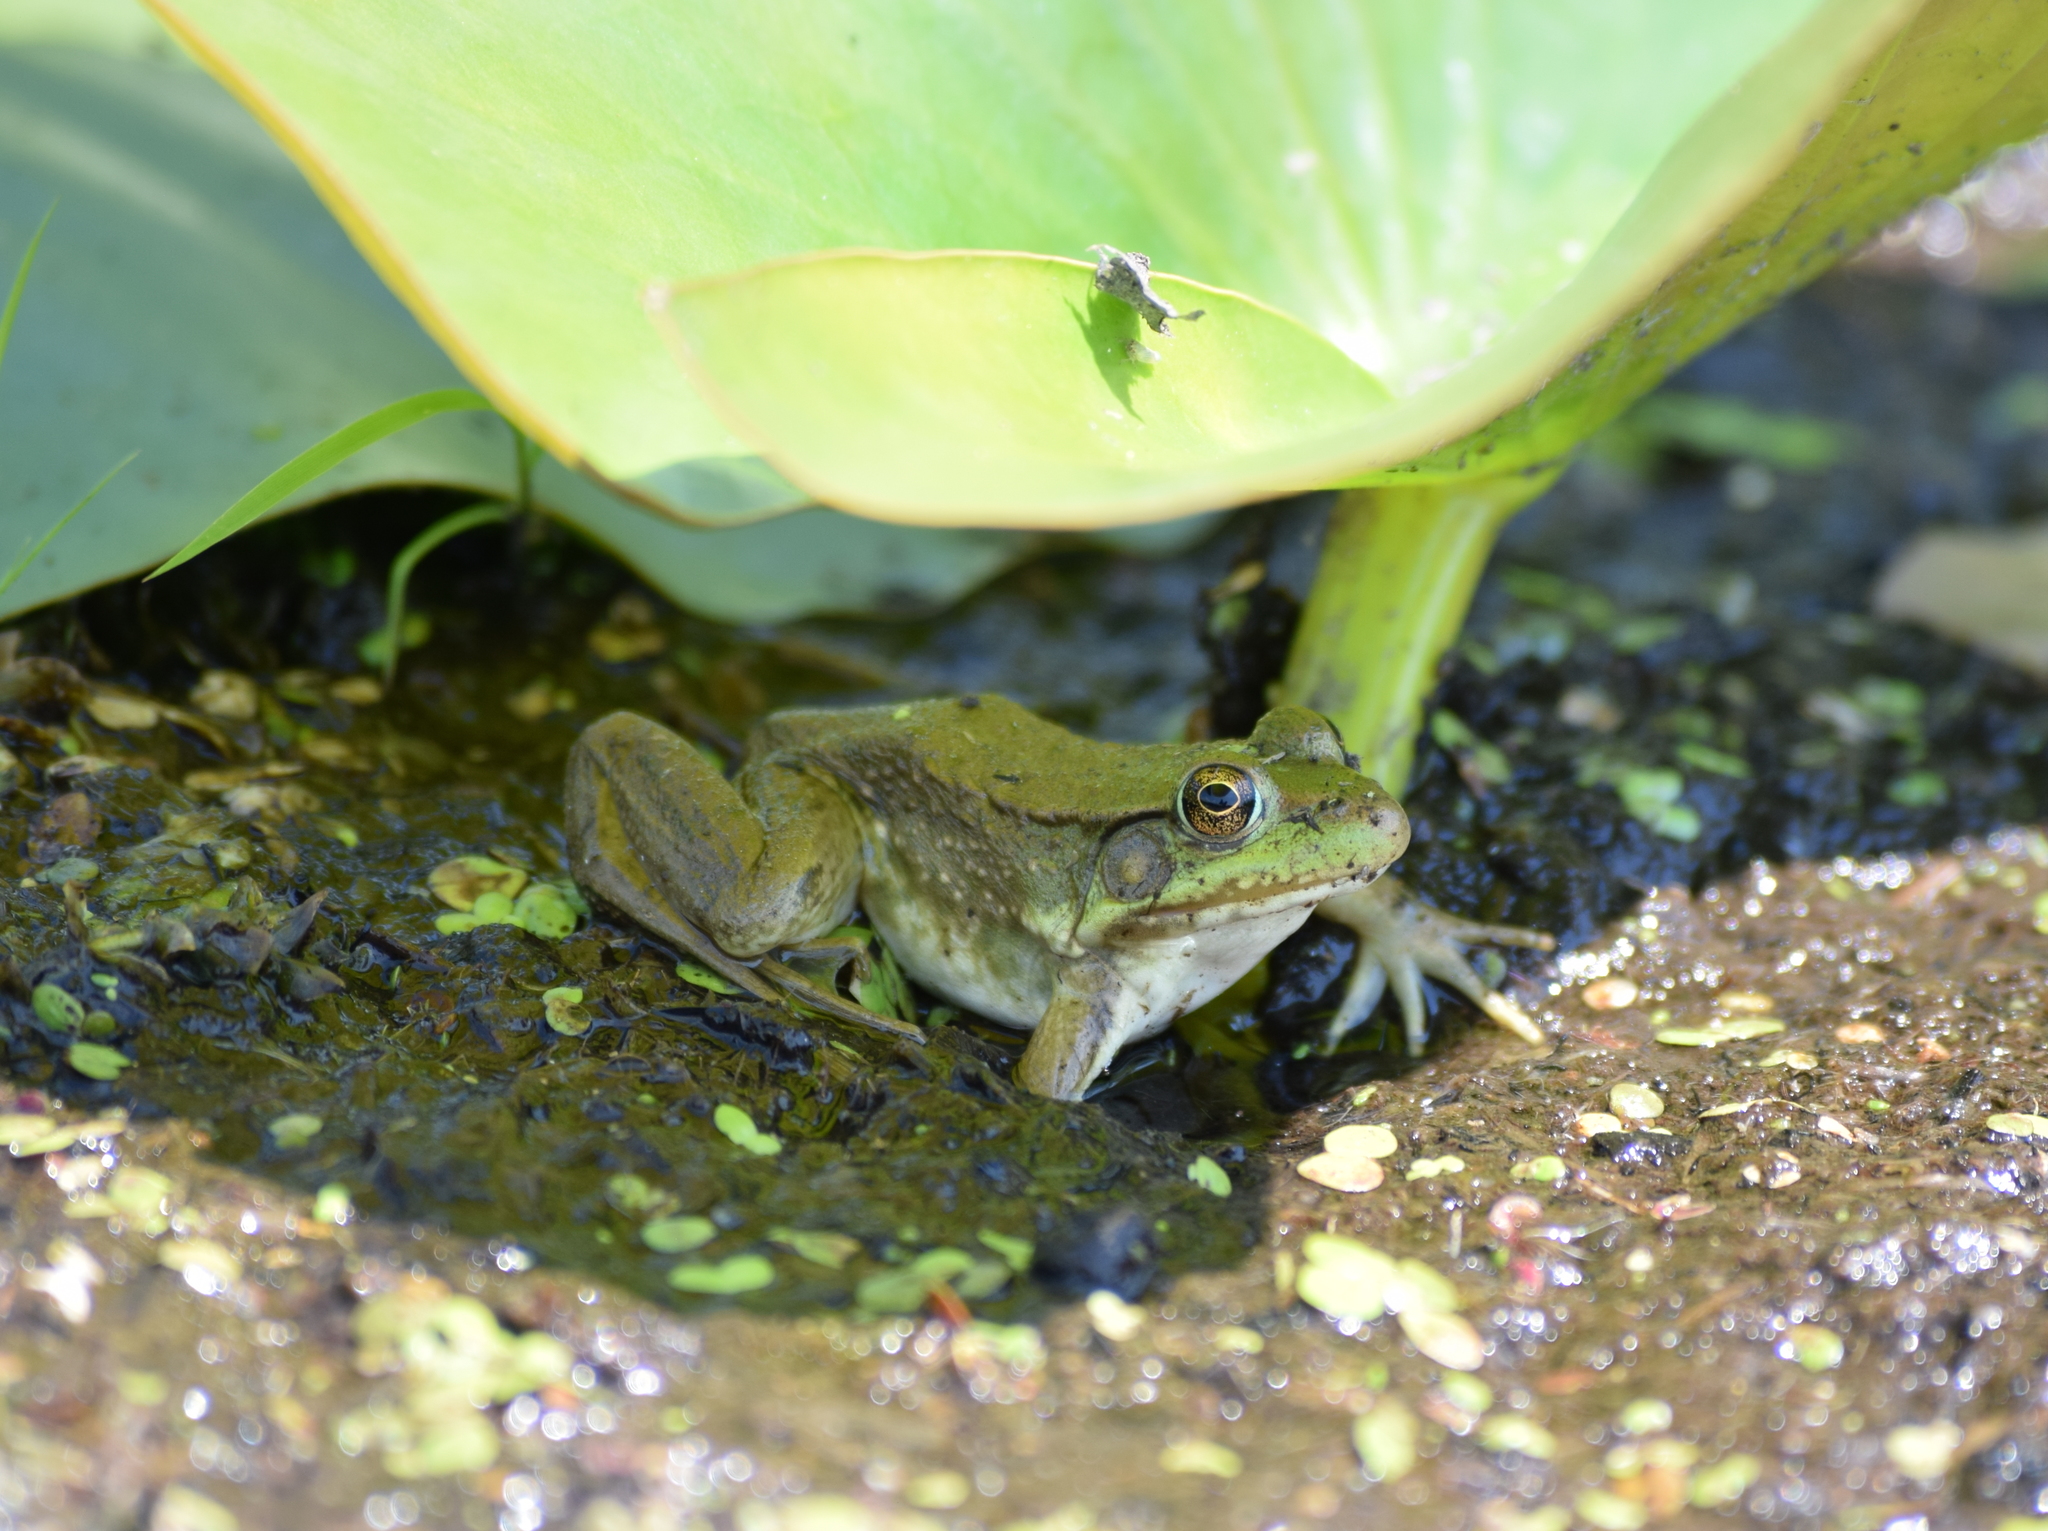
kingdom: Animalia
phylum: Chordata
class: Amphibia
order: Anura
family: Ranidae
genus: Lithobates
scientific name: Lithobates clamitans
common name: Green frog
